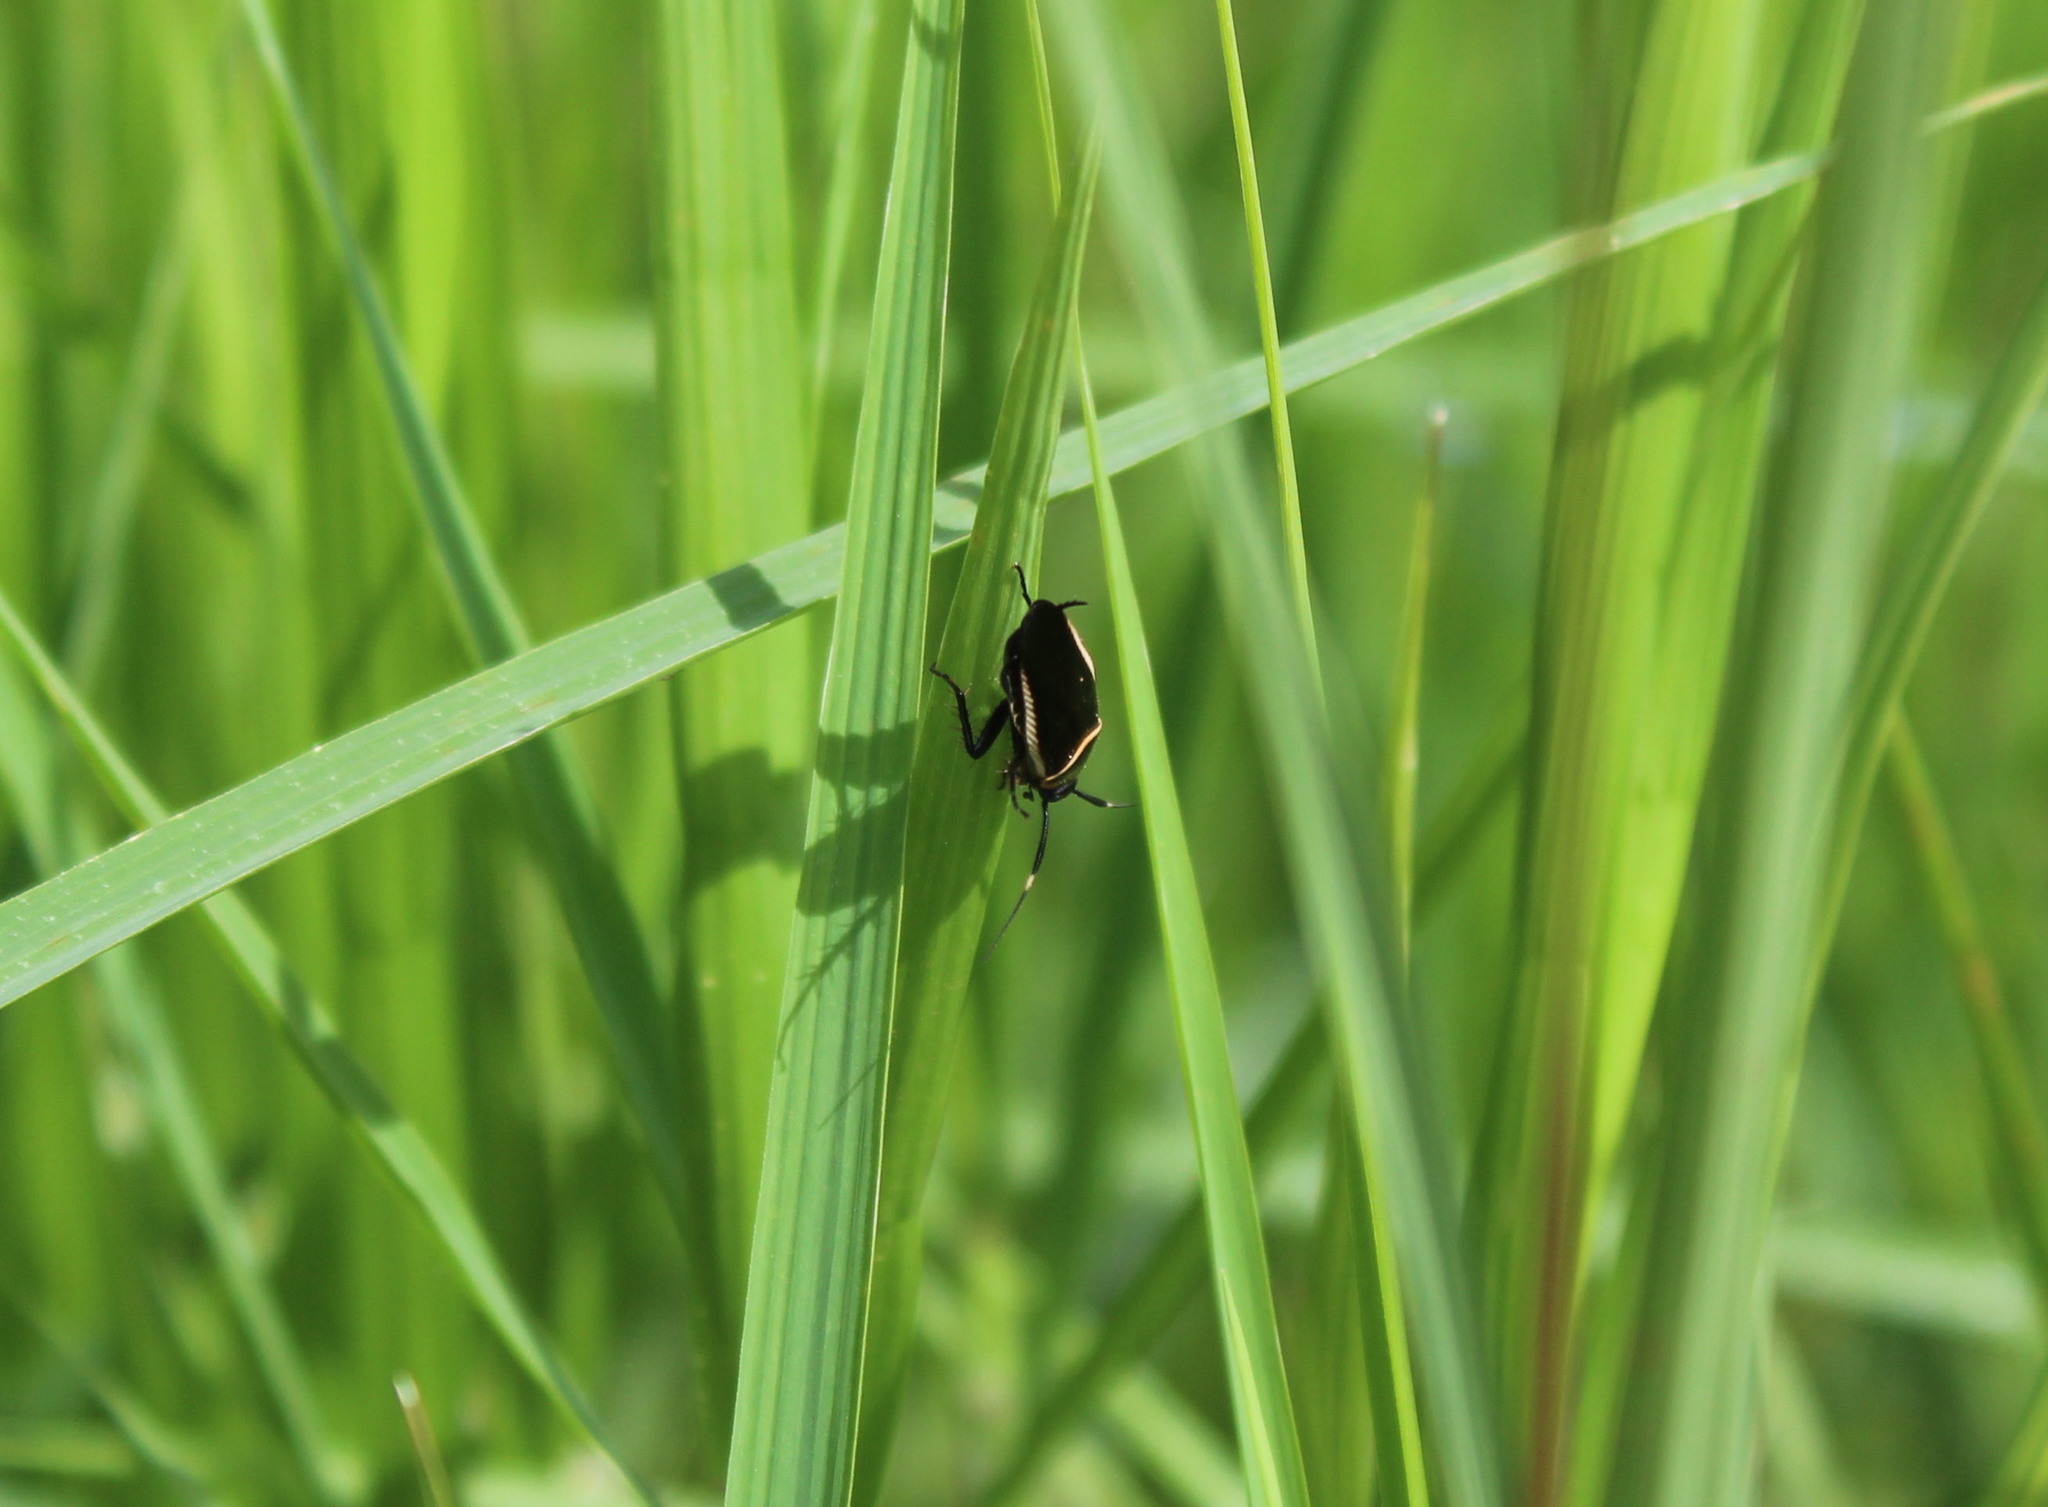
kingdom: Animalia
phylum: Arthropoda
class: Insecta
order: Blattodea
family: Ectobiidae
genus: Pseudomops
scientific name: Pseudomops interceptus
